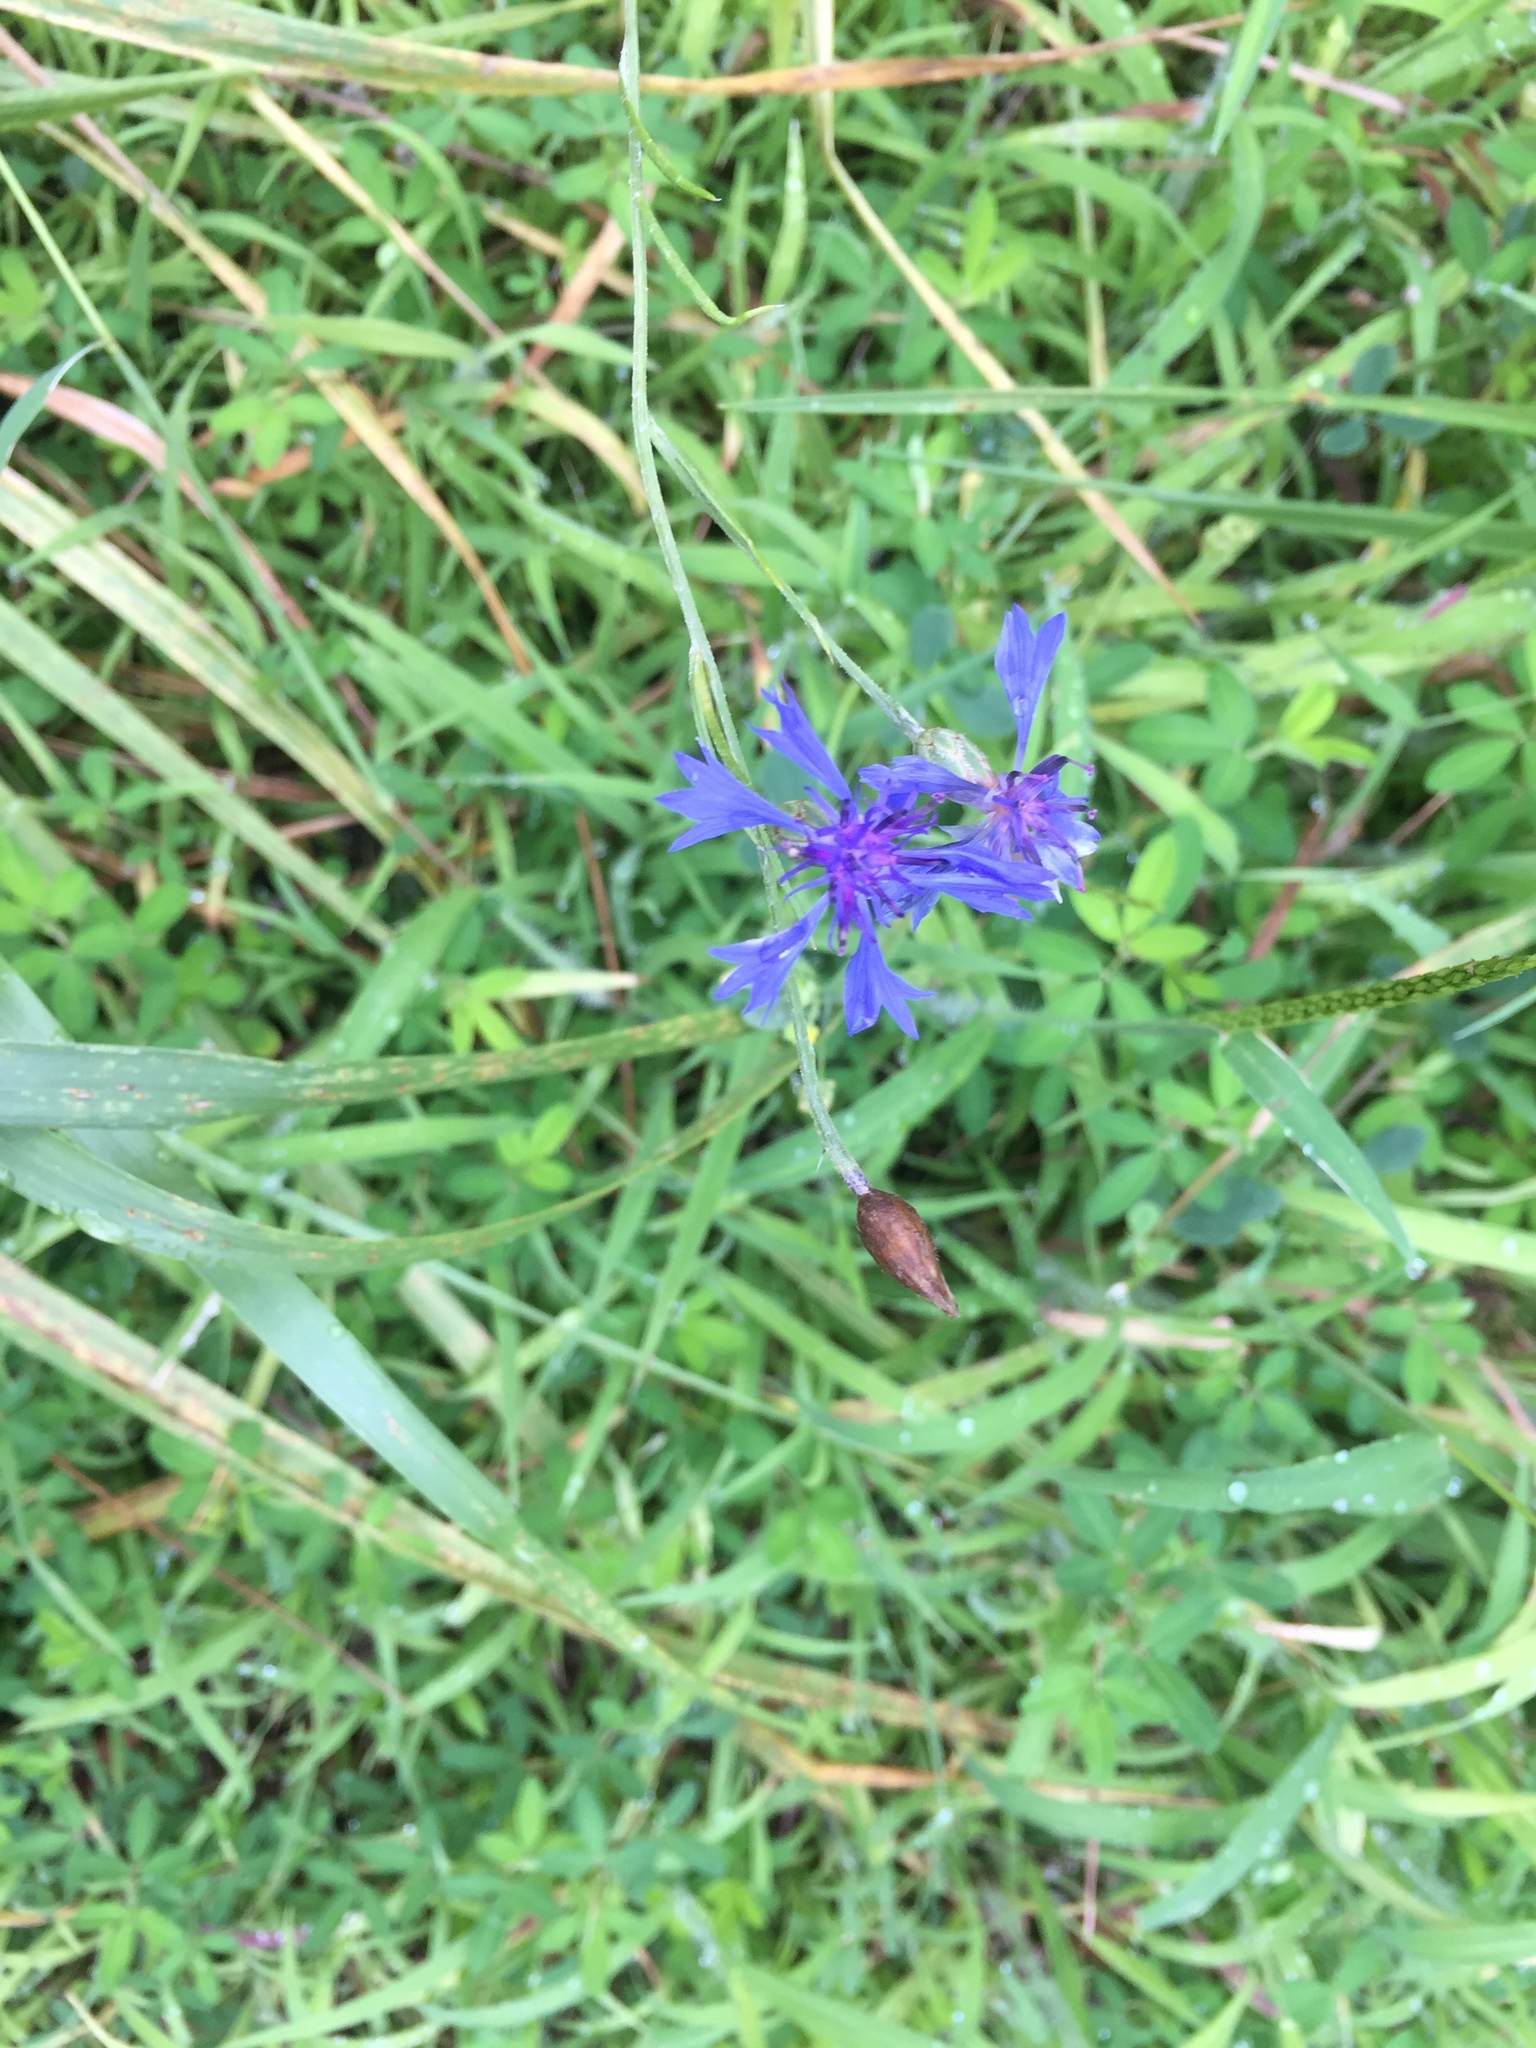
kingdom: Plantae
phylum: Tracheophyta
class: Magnoliopsida
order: Asterales
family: Asteraceae
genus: Centaurea
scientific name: Centaurea cyanus
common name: Cornflower
